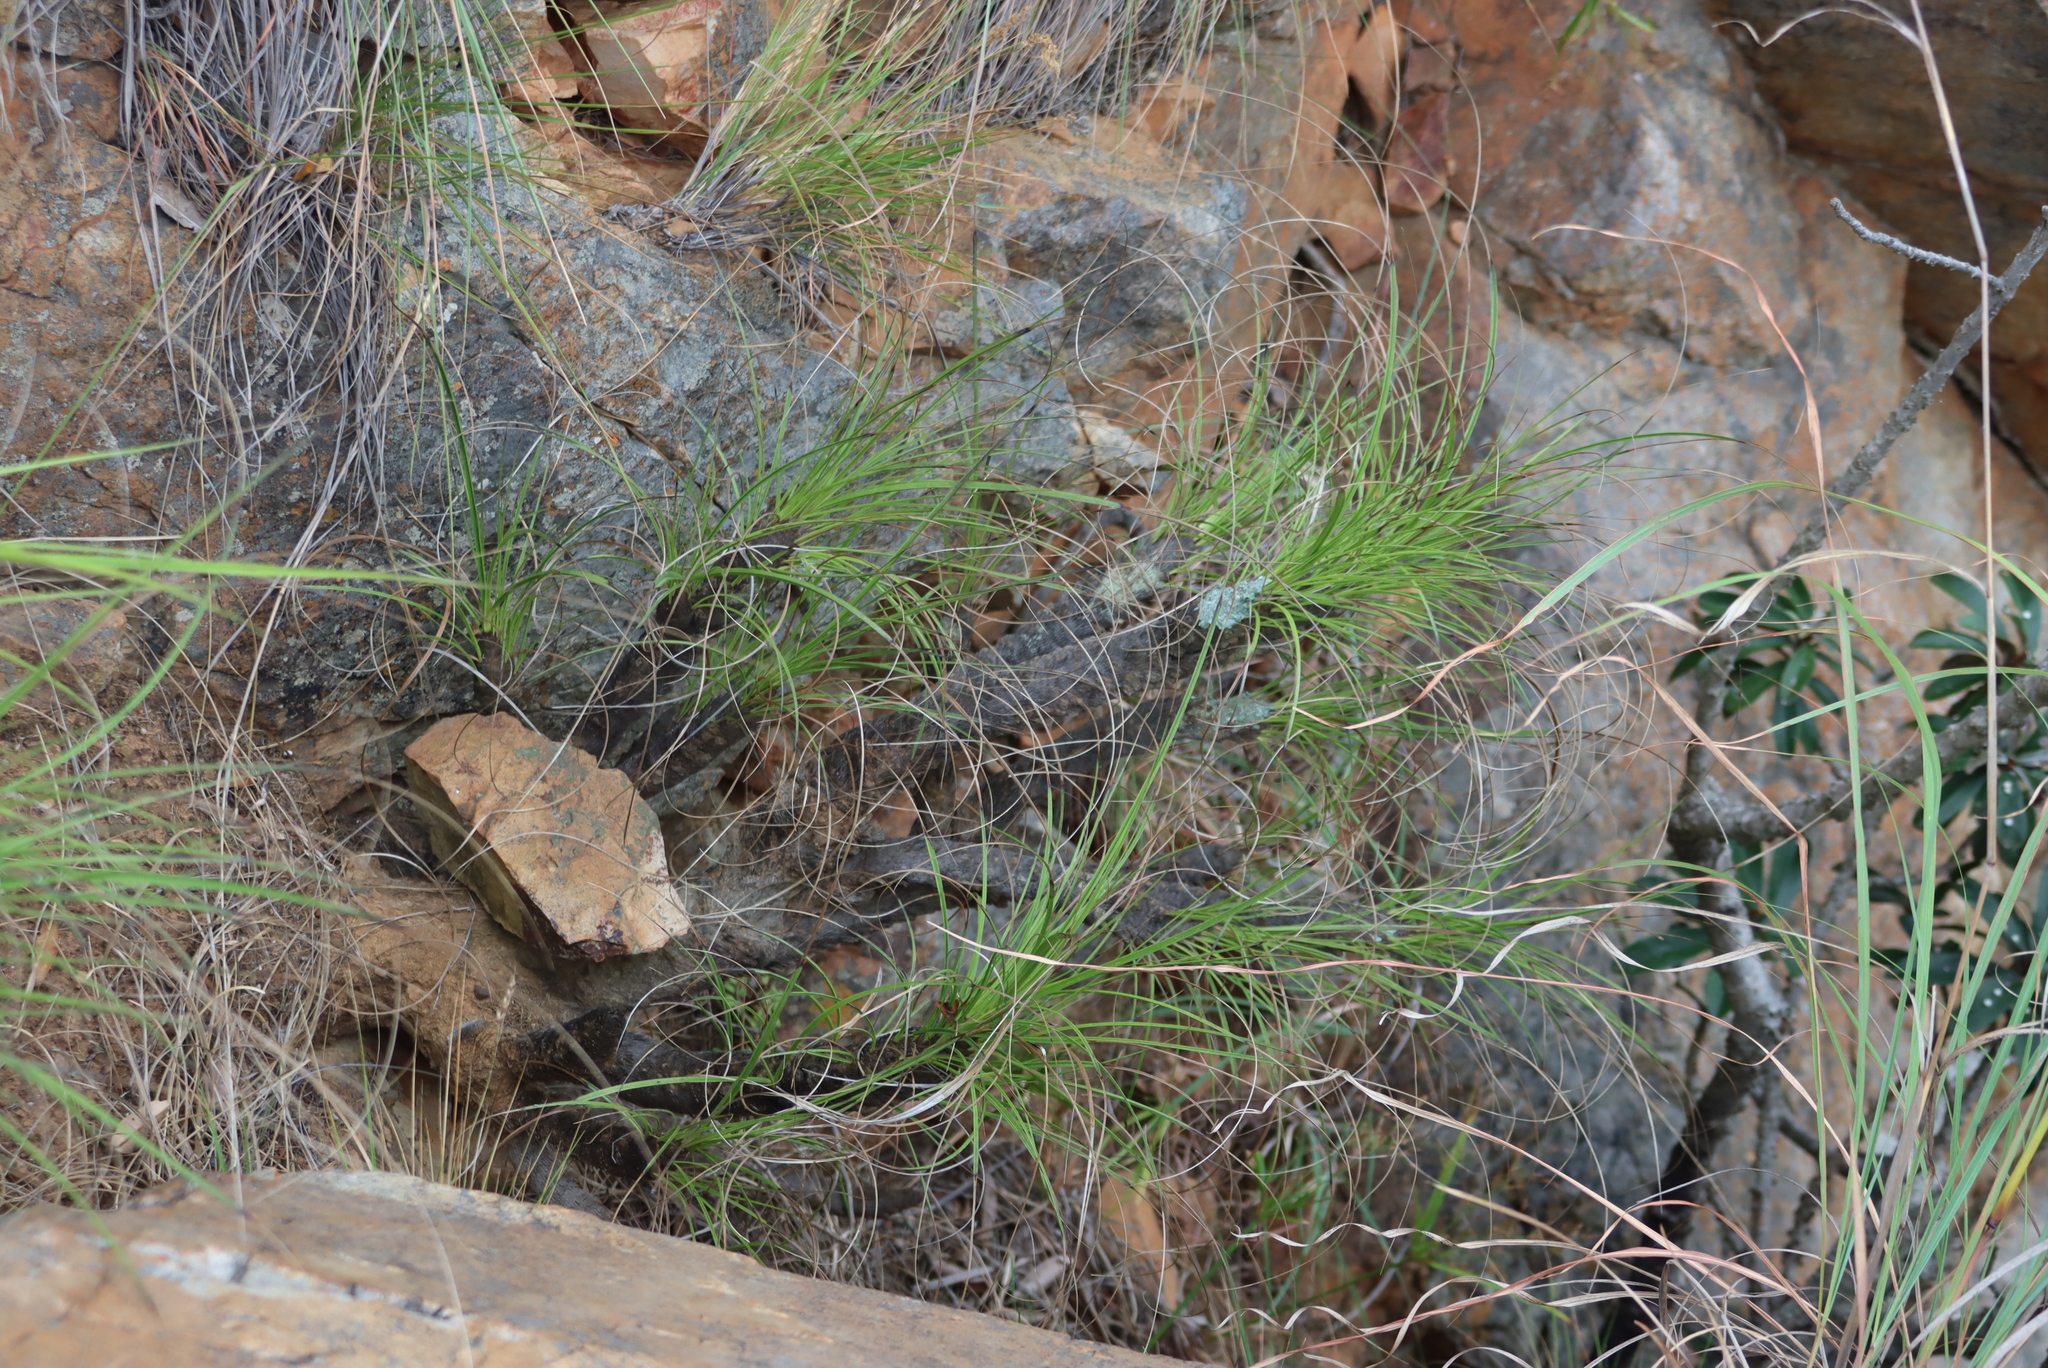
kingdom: Plantae
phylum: Tracheophyta
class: Liliopsida
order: Pandanales
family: Velloziaceae
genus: Xerophyta
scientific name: Xerophyta retinervis
